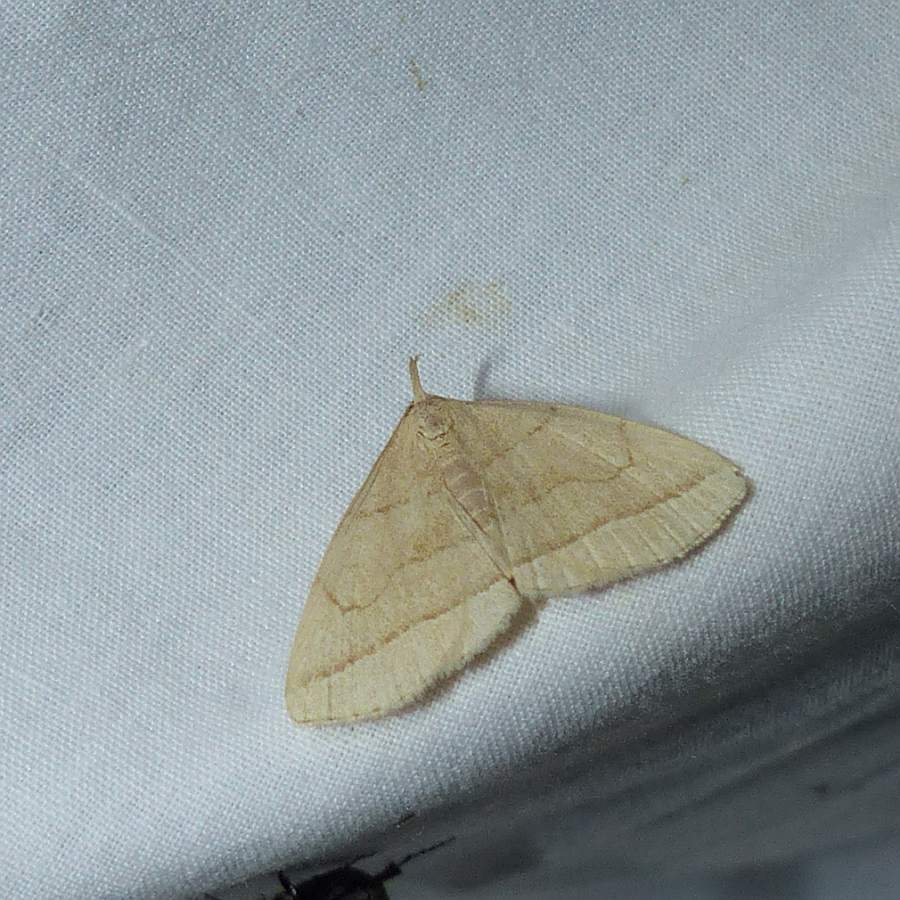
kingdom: Animalia
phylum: Arthropoda
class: Insecta
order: Lepidoptera
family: Erebidae
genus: Zanclognatha
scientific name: Zanclognatha cruralis
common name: Early fan-foot
